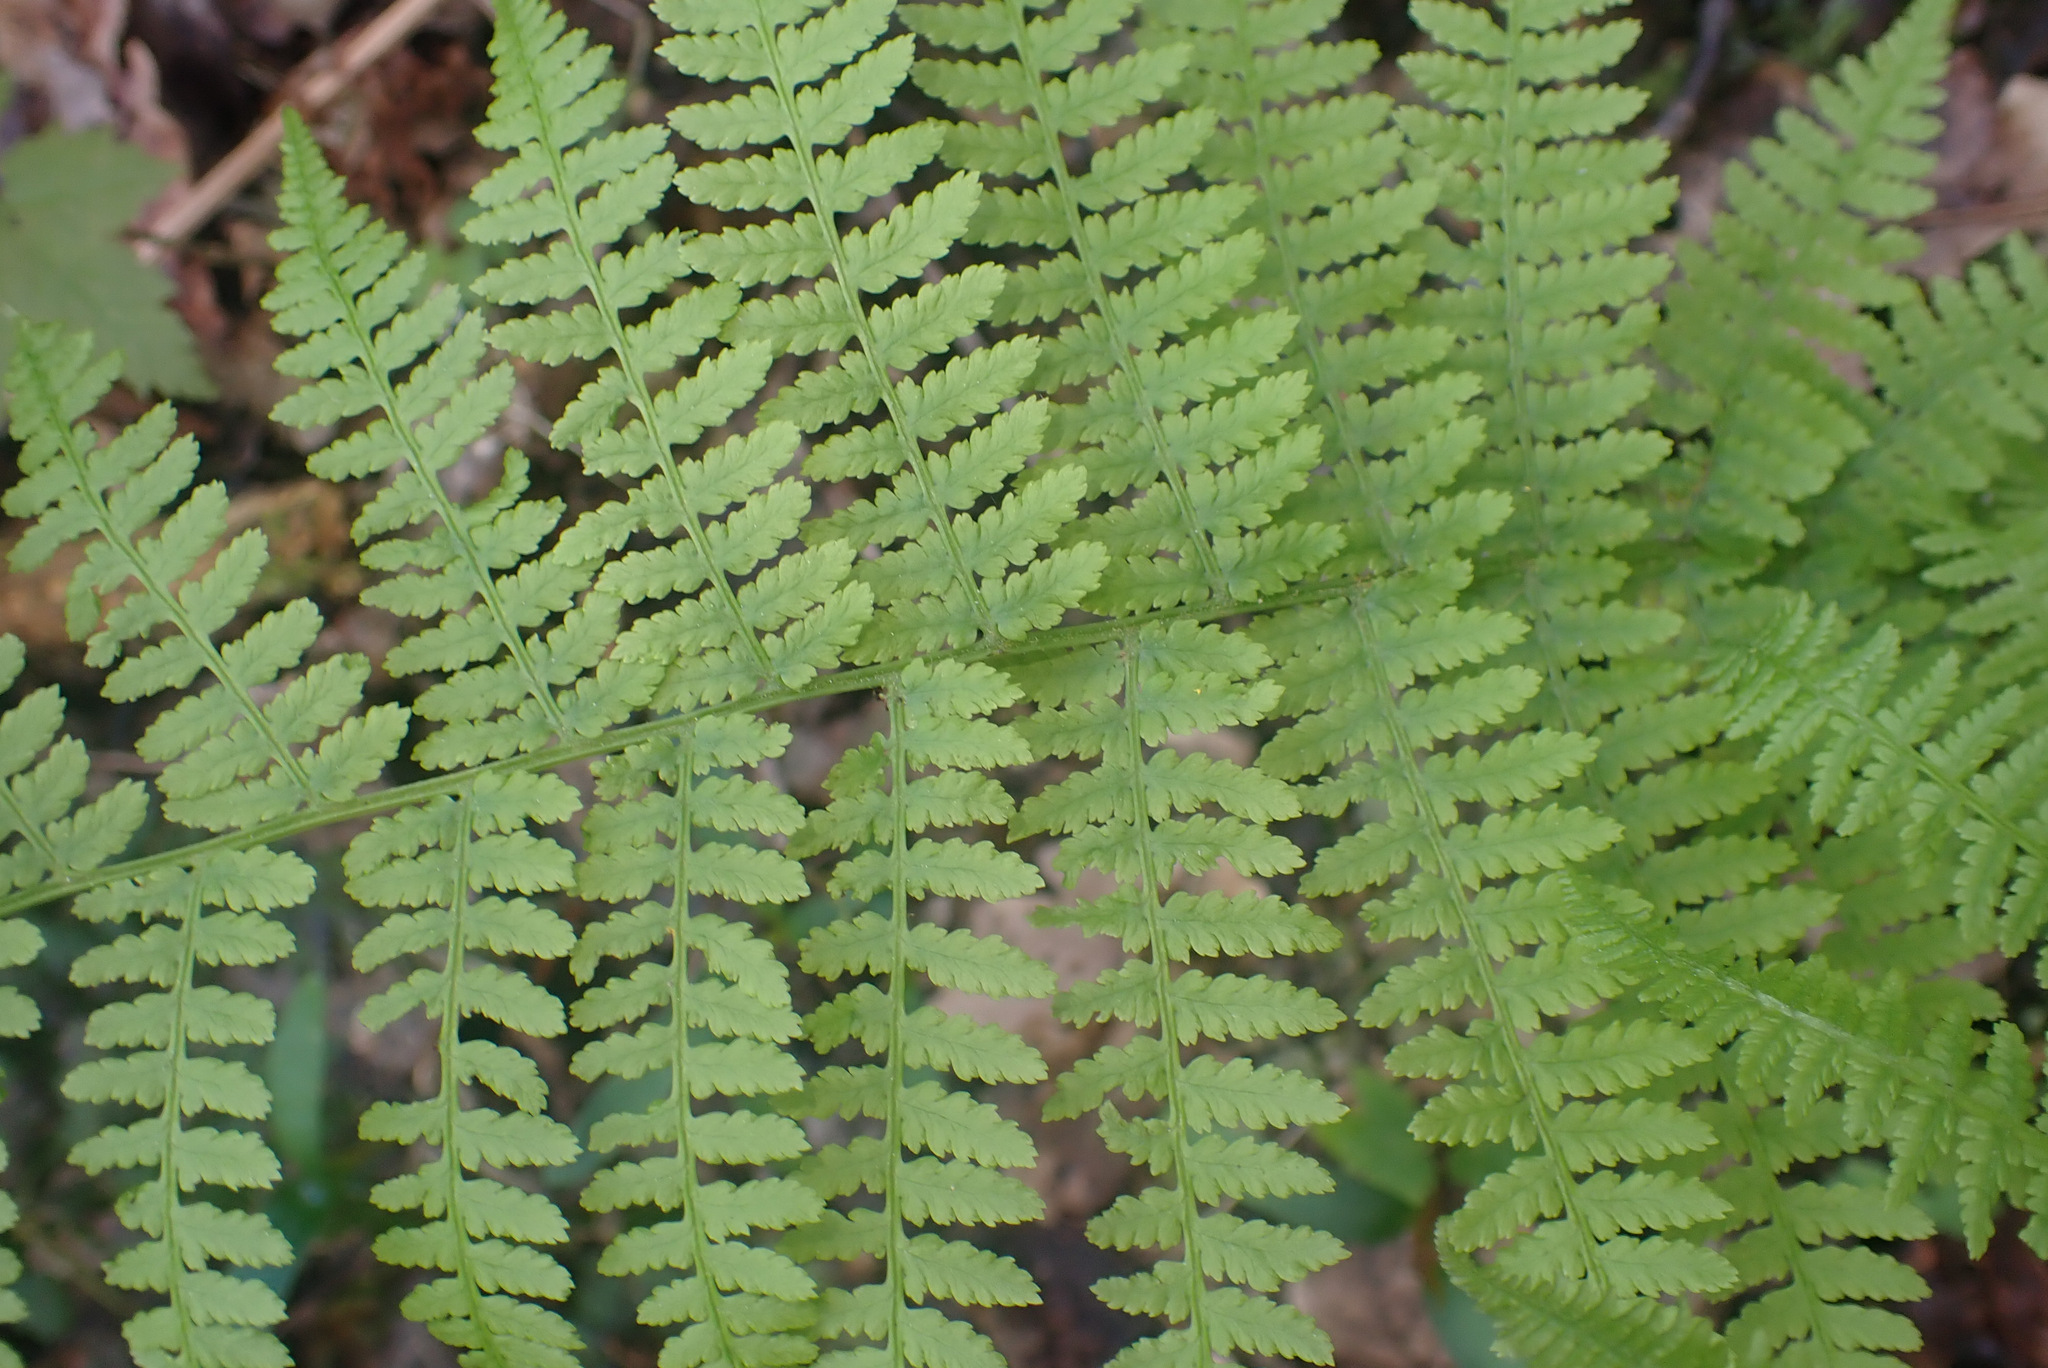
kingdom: Plantae
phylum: Tracheophyta
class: Polypodiopsida
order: Polypodiales
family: Athyriaceae
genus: Athyrium
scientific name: Athyrium filix-femina
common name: Lady fern
